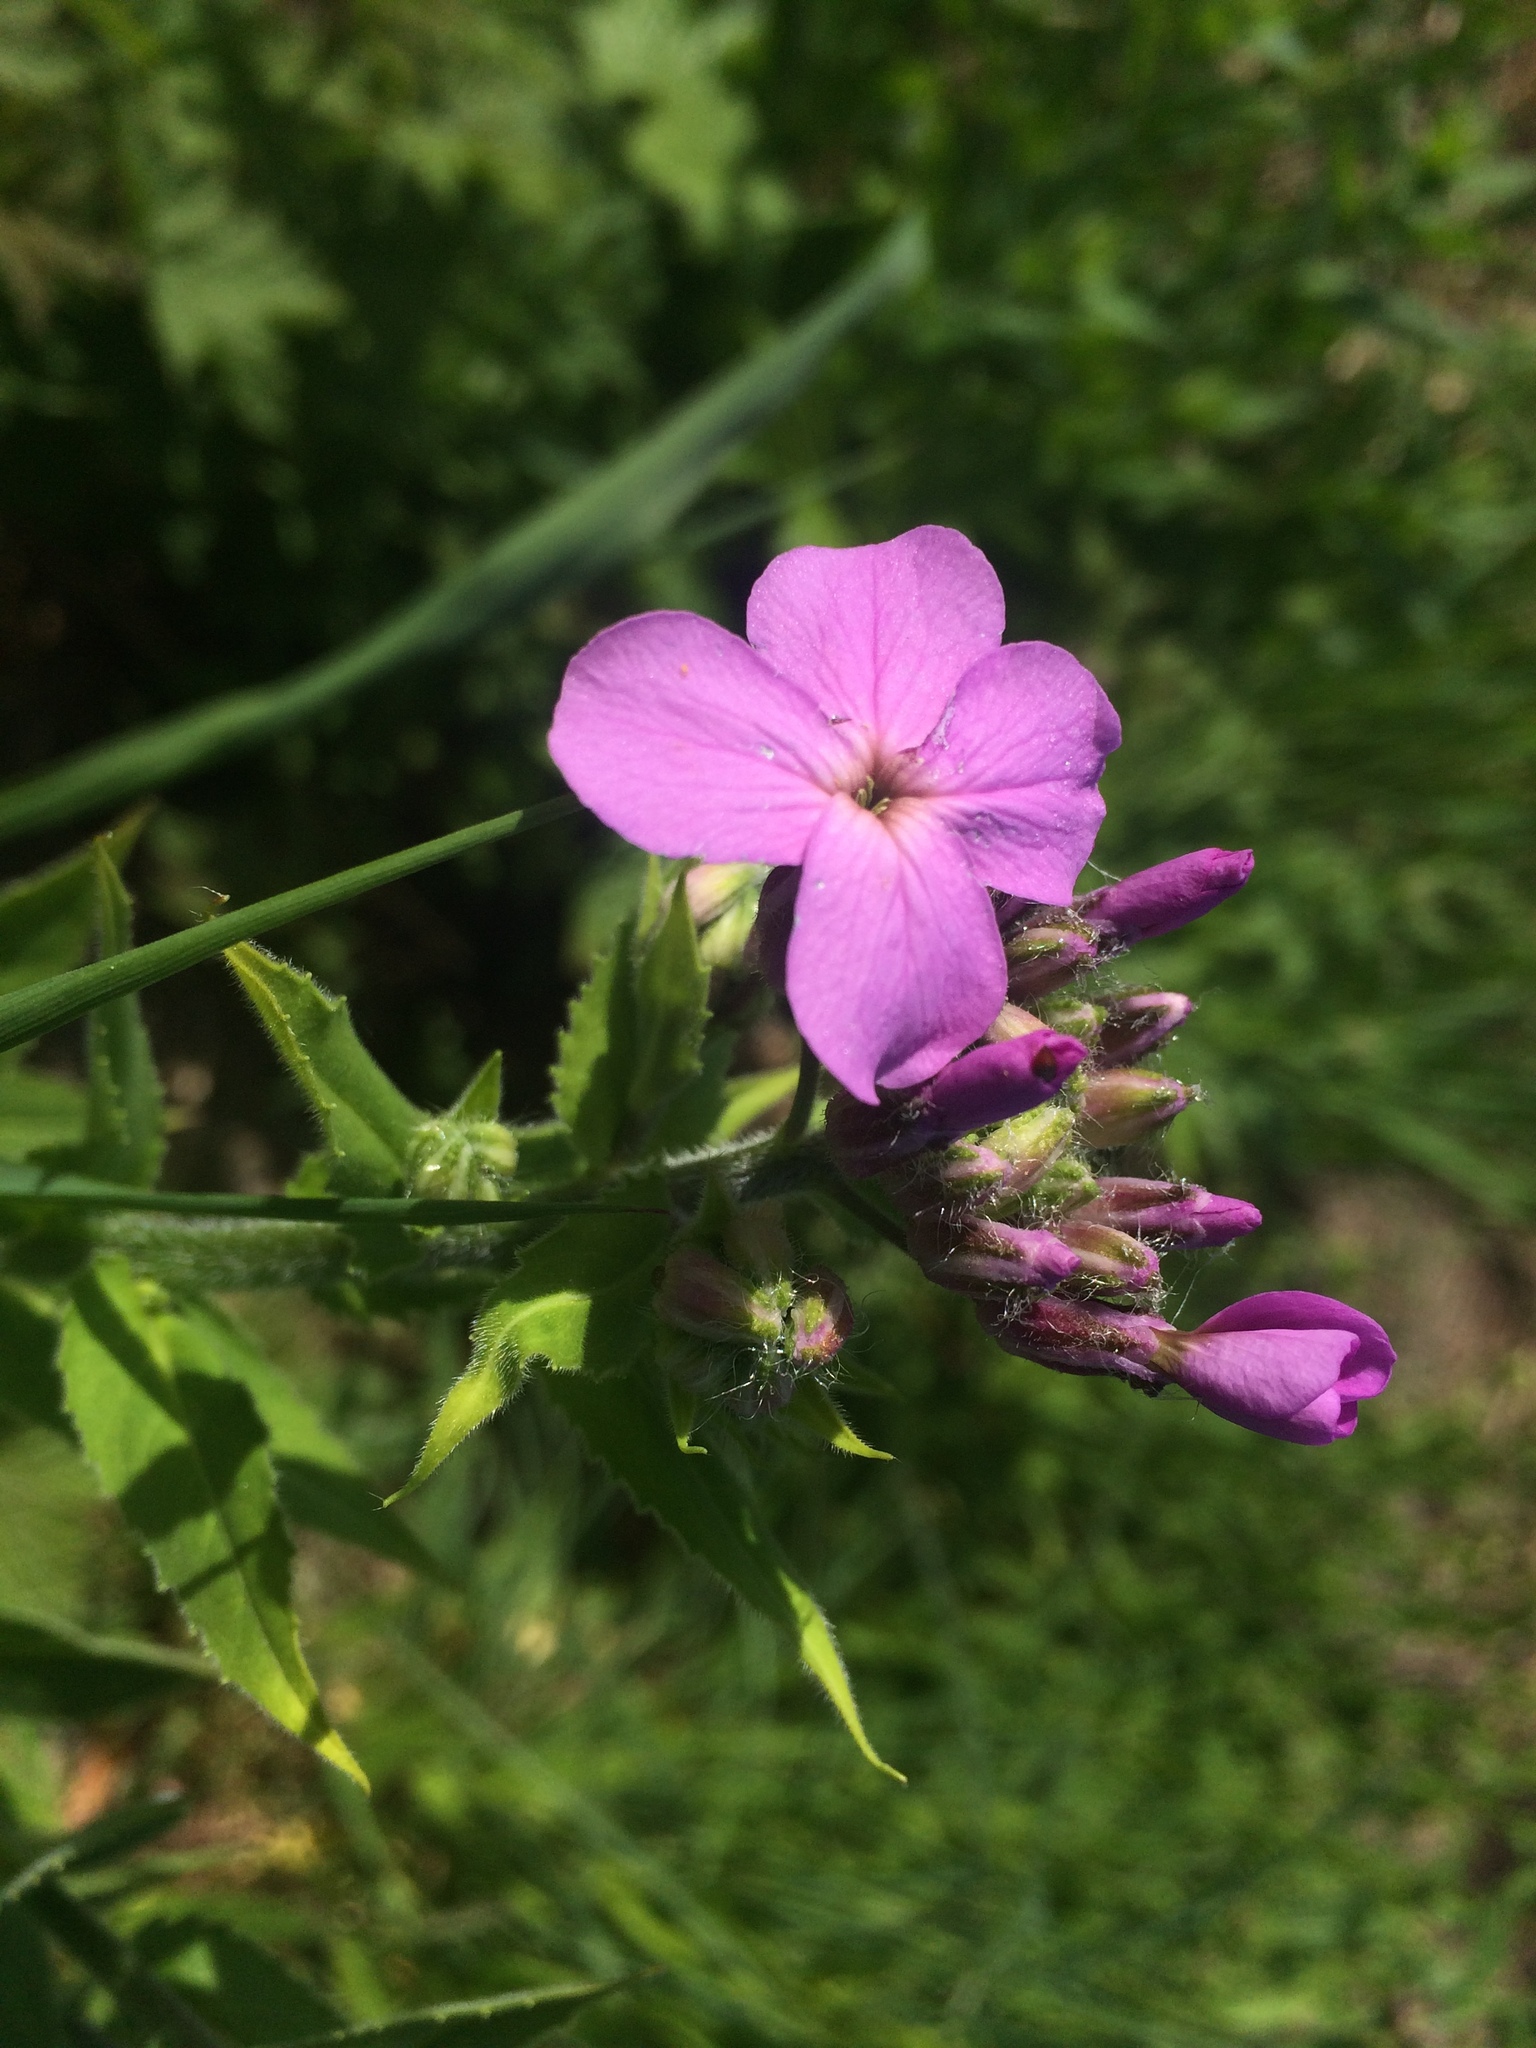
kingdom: Plantae
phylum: Tracheophyta
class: Magnoliopsida
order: Brassicales
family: Brassicaceae
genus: Hesperis
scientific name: Hesperis matronalis
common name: Dame's-violet
